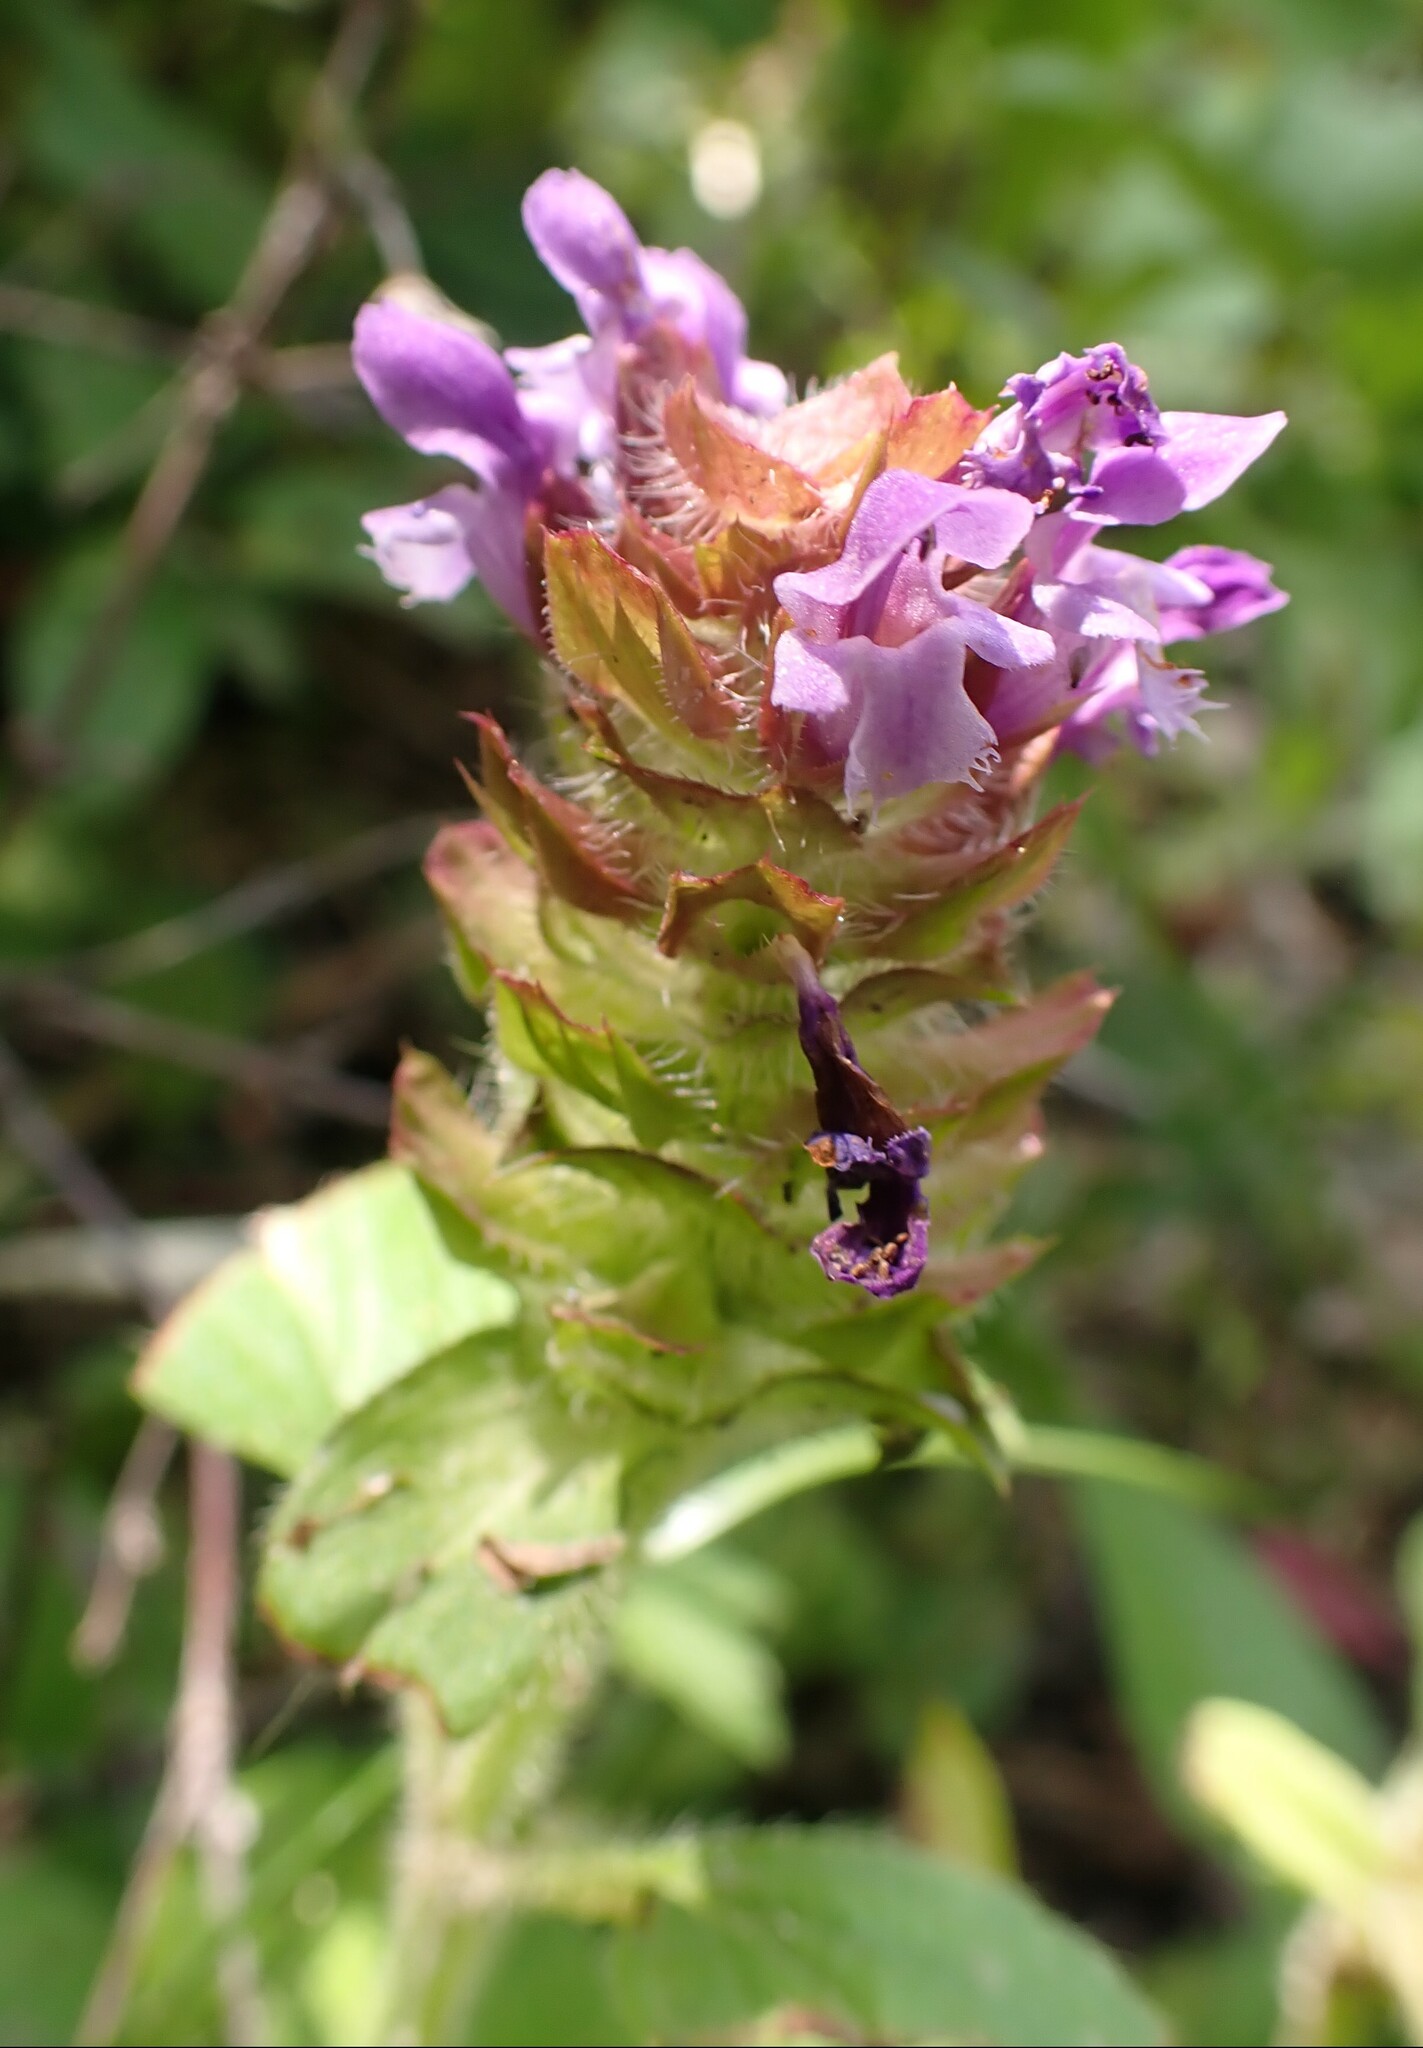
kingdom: Plantae
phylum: Tracheophyta
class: Magnoliopsida
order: Lamiales
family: Lamiaceae
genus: Prunella
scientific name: Prunella vulgaris
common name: Heal-all
